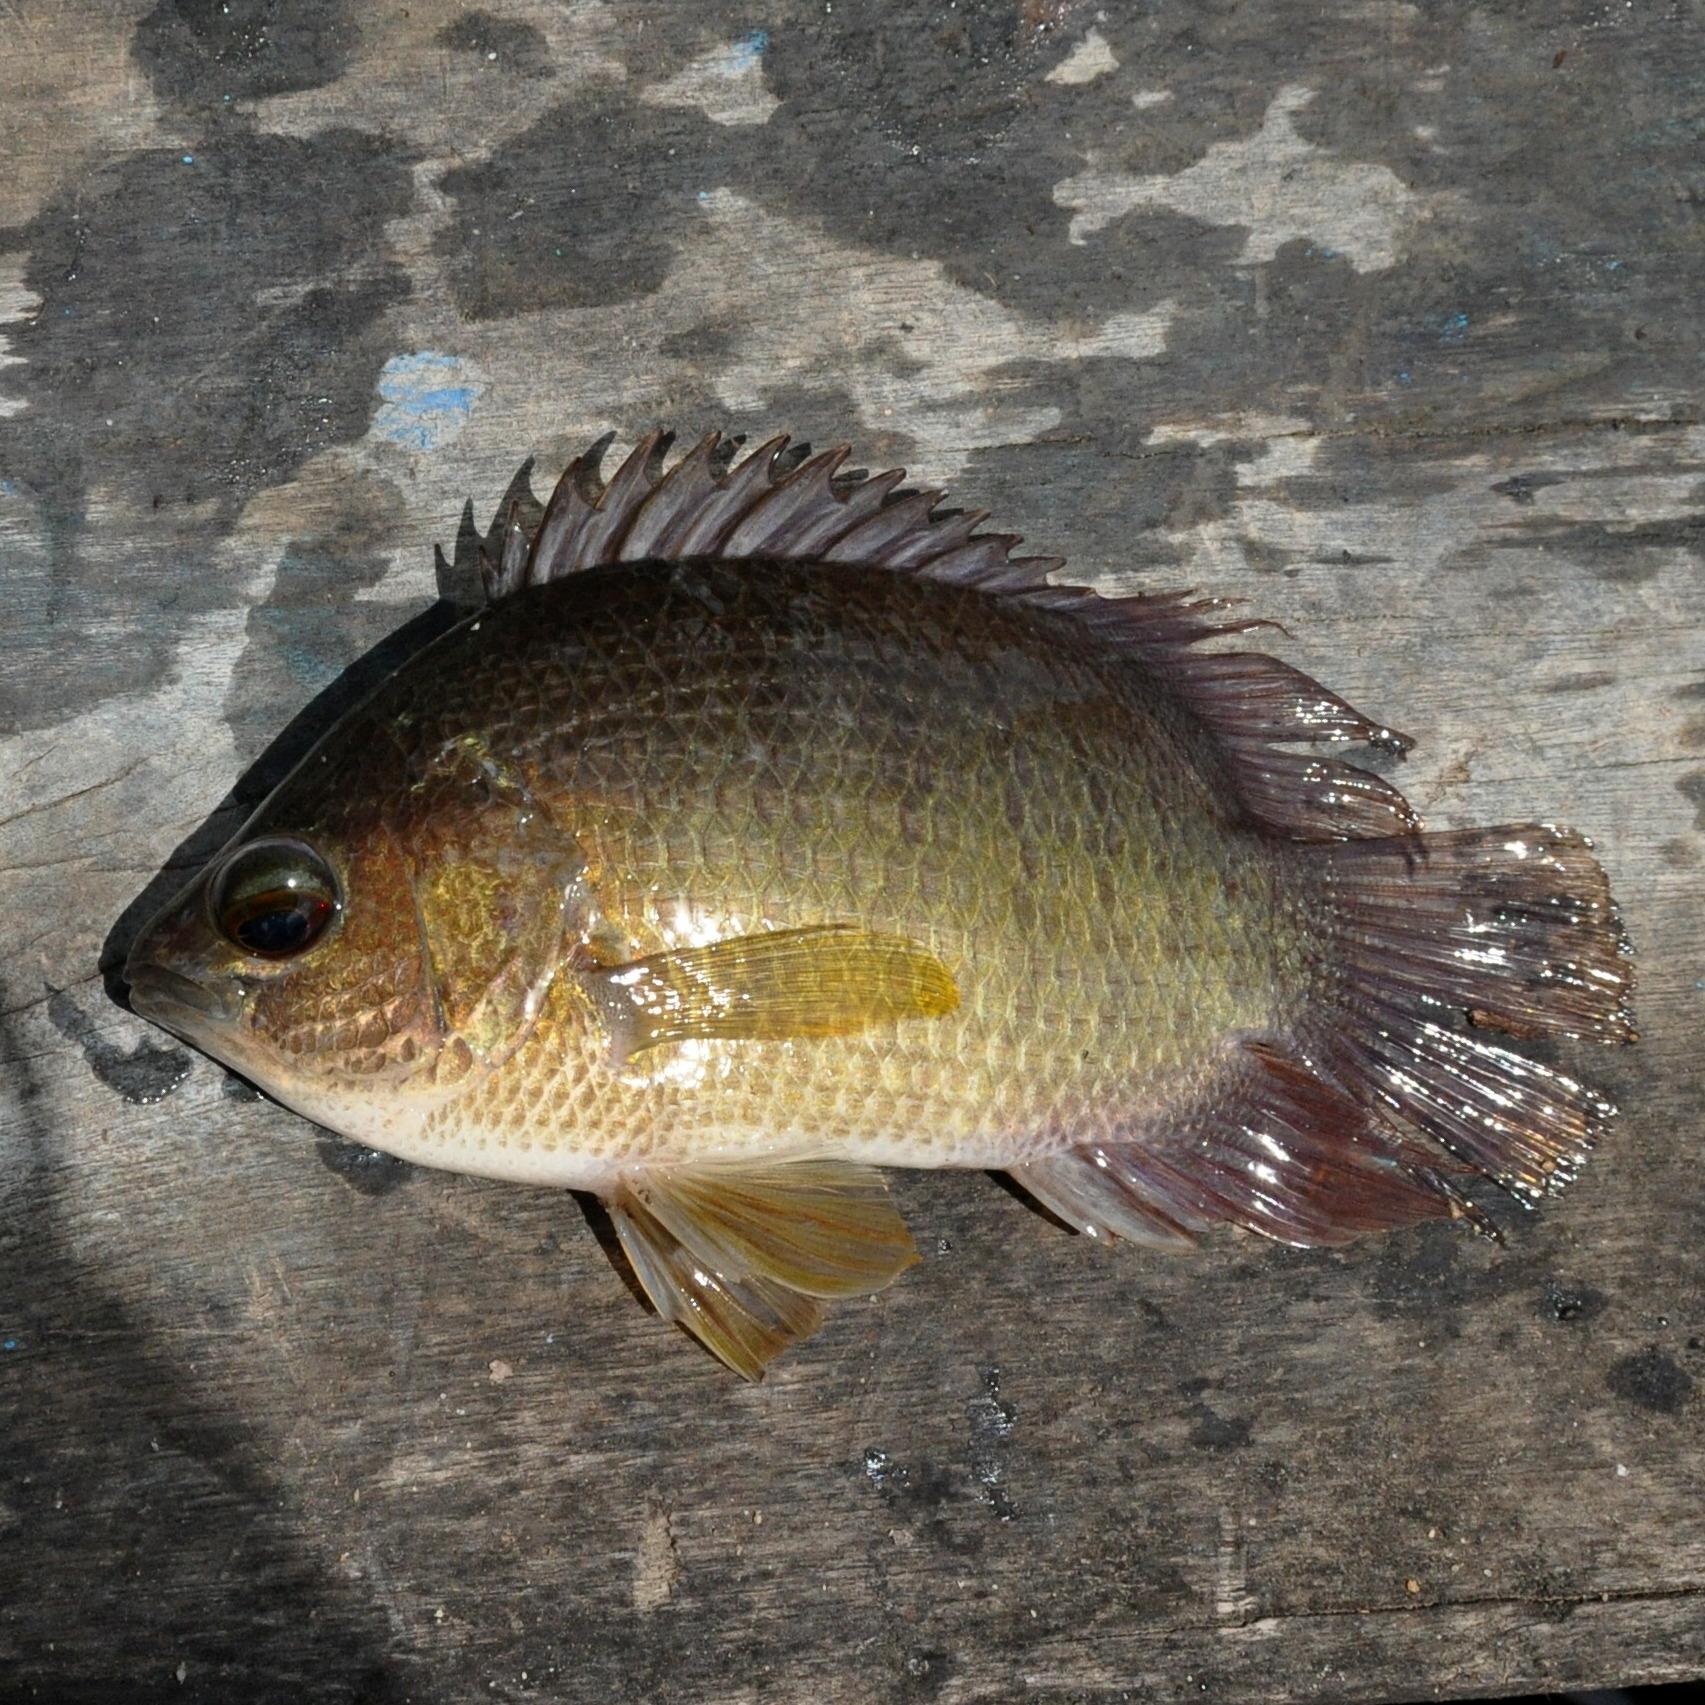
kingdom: Animalia
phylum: Chordata
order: Perciformes
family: Pristolepididae
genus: Pristolepis
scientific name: Pristolepis fasciata
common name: Malayan leaffish
